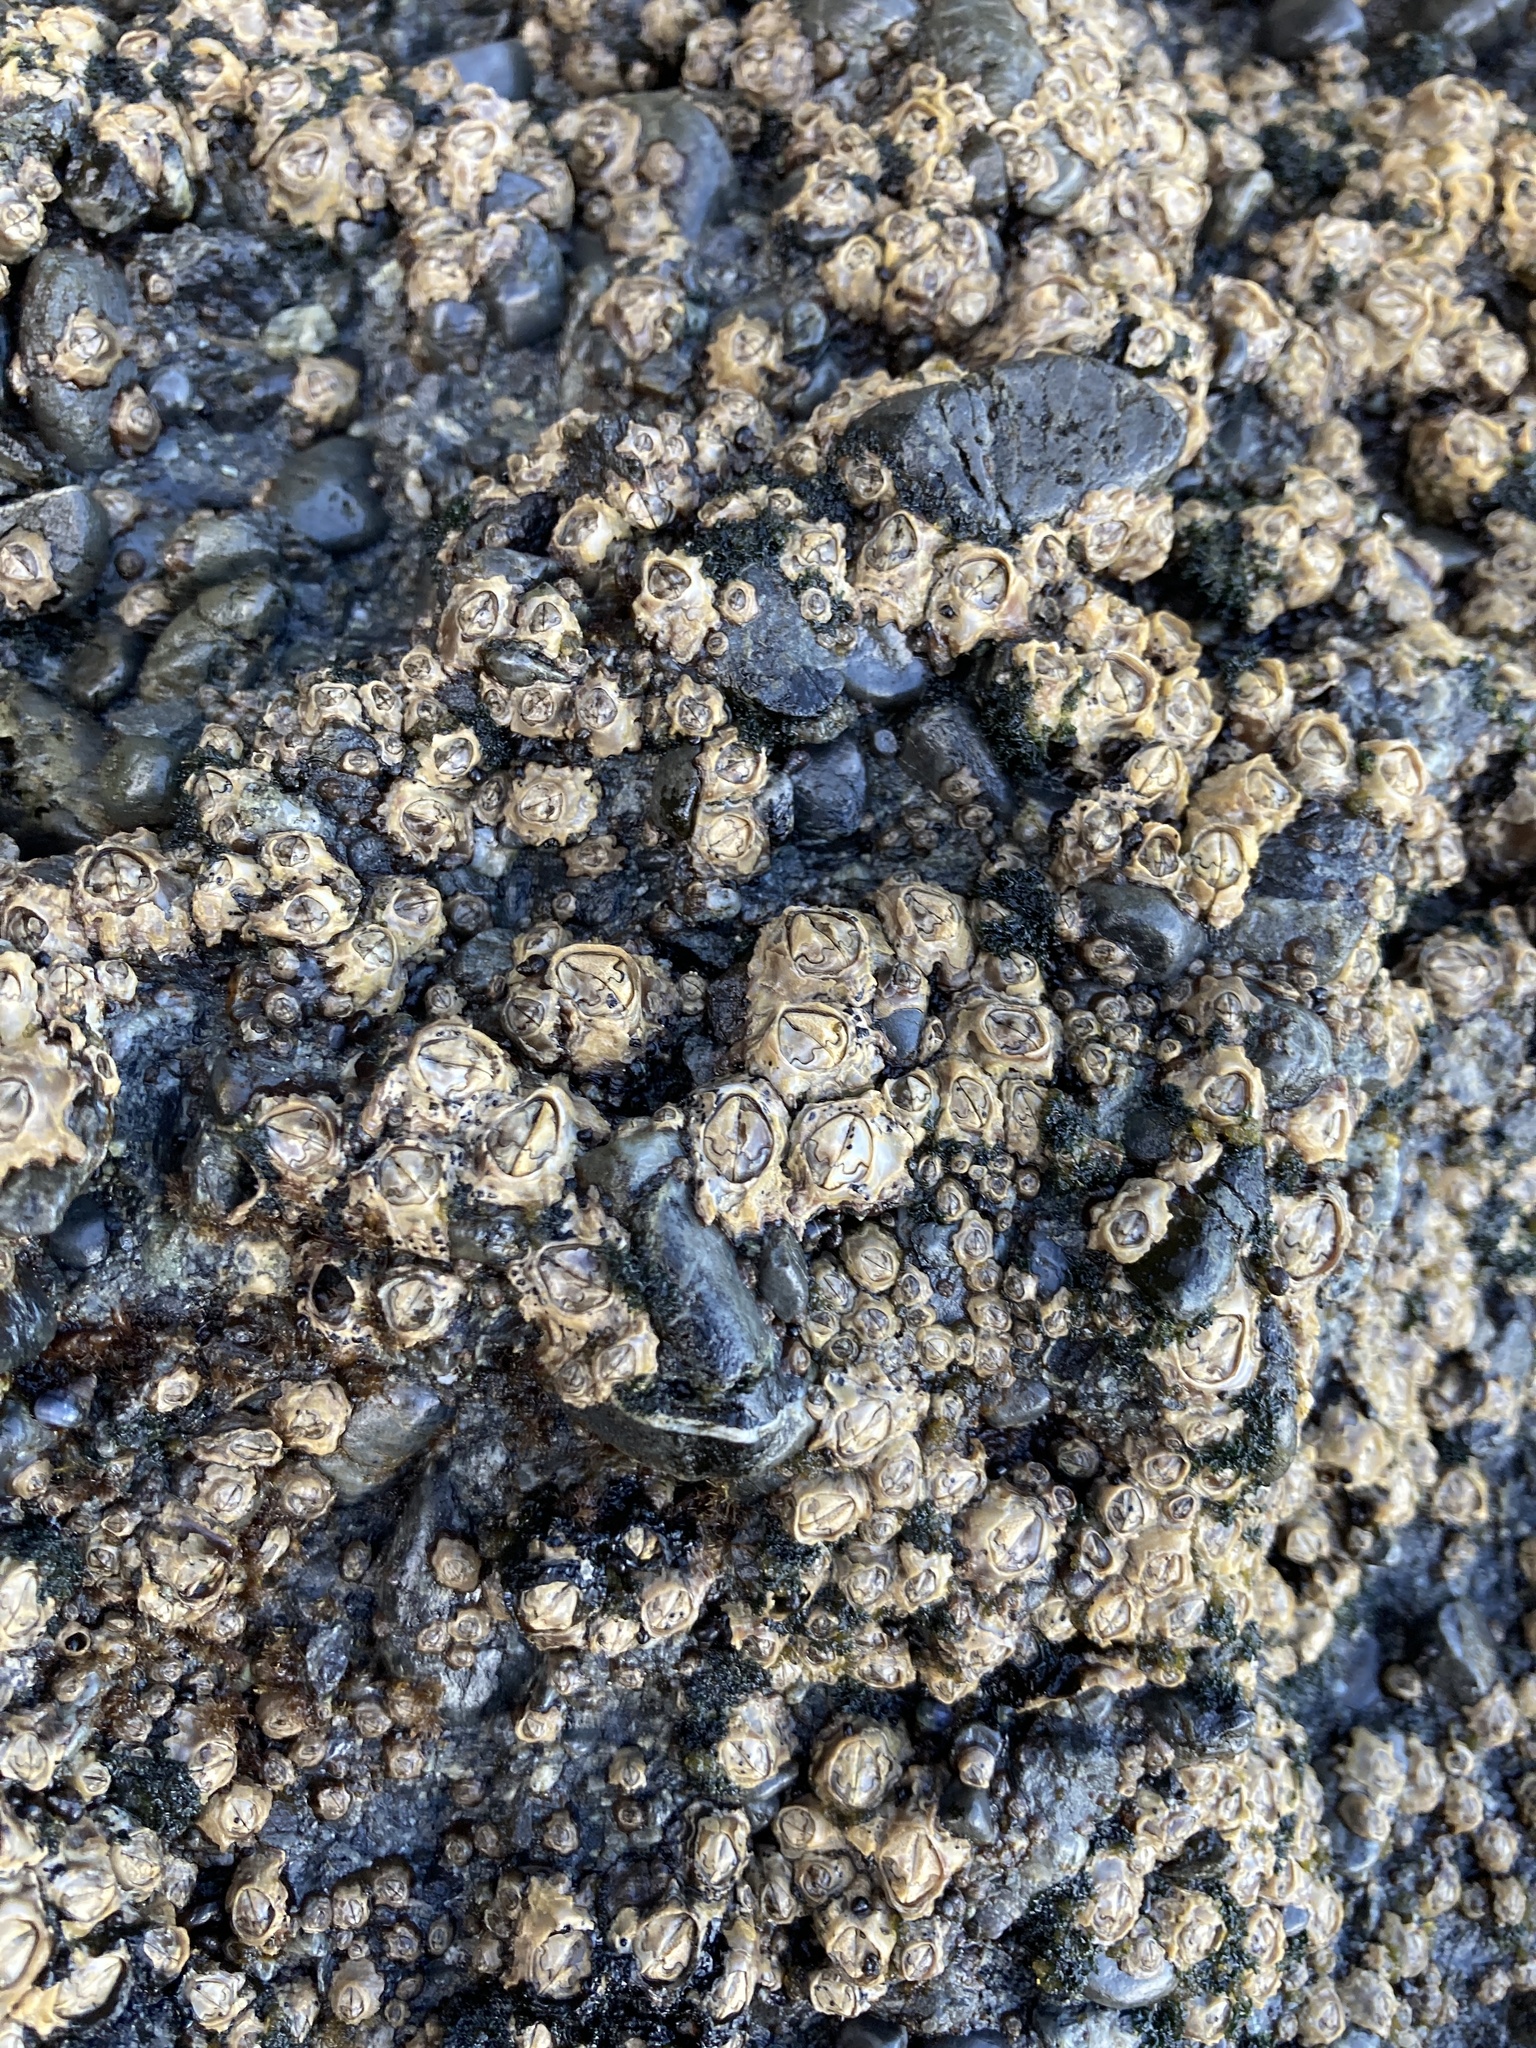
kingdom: Animalia
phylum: Arthropoda
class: Maxillopoda
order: Sessilia
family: Chthamalidae
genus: Chamaesipho
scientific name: Chamaesipho brunnea
